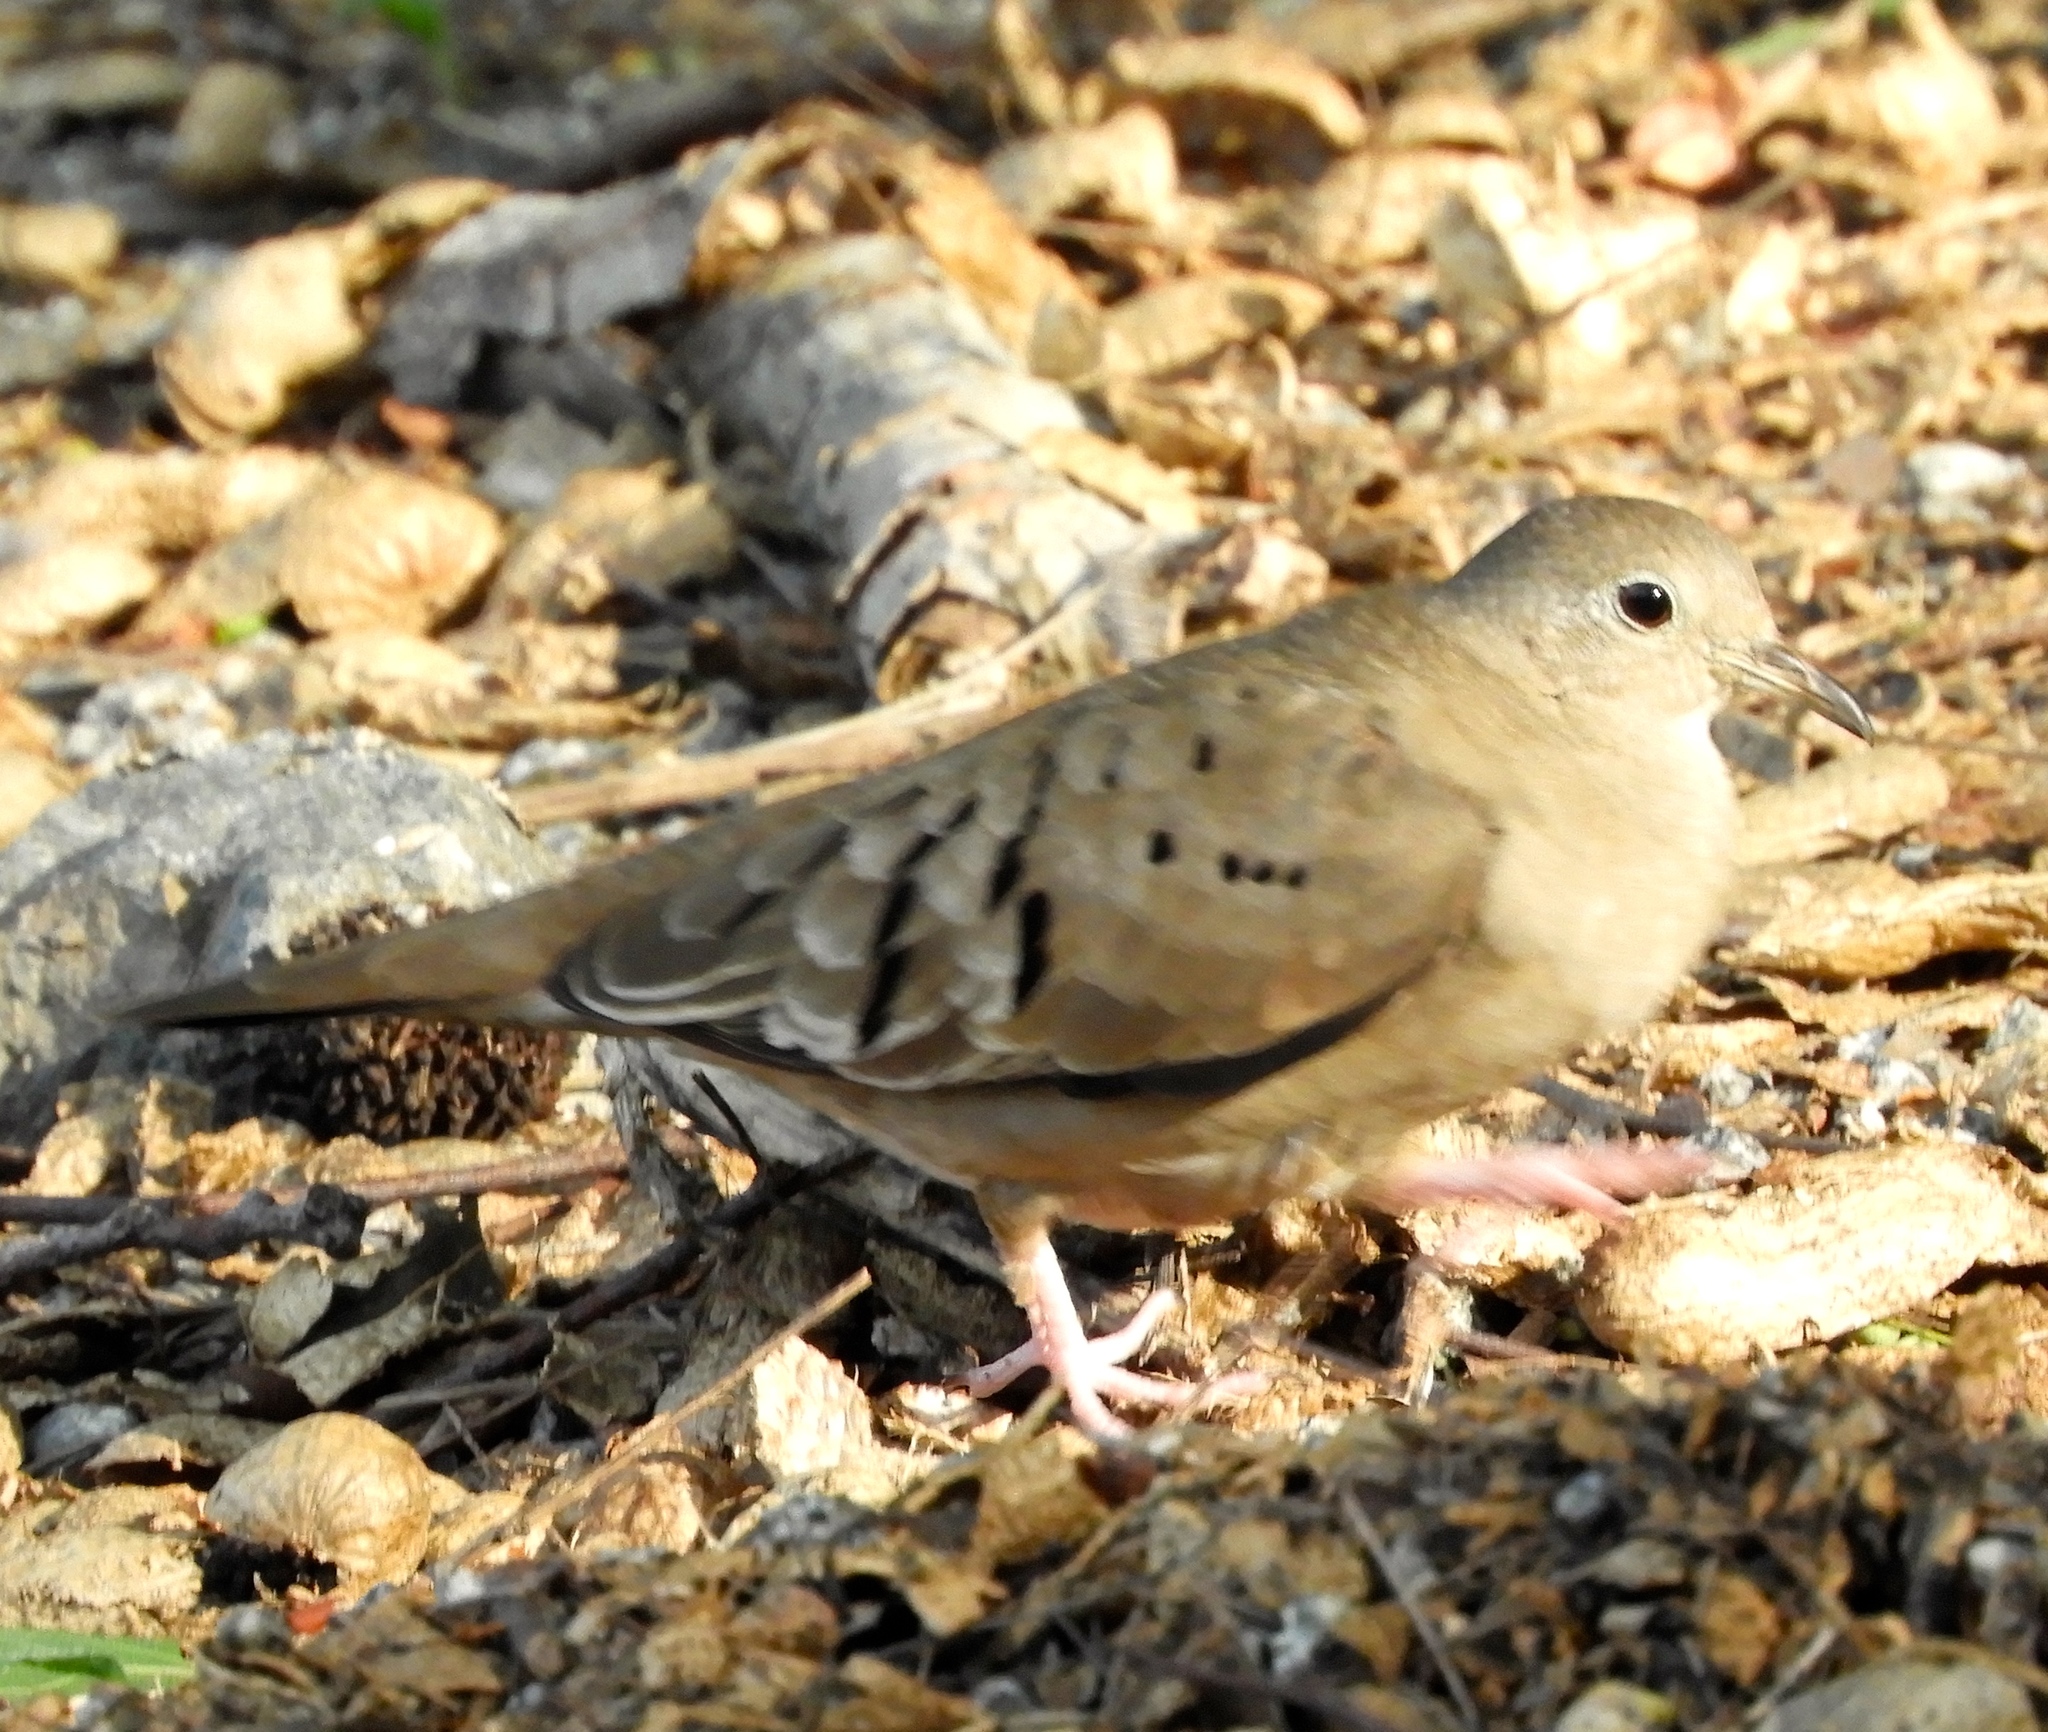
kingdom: Animalia
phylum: Chordata
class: Aves
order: Columbiformes
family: Columbidae
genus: Columbina
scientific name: Columbina talpacoti
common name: Ruddy ground dove
